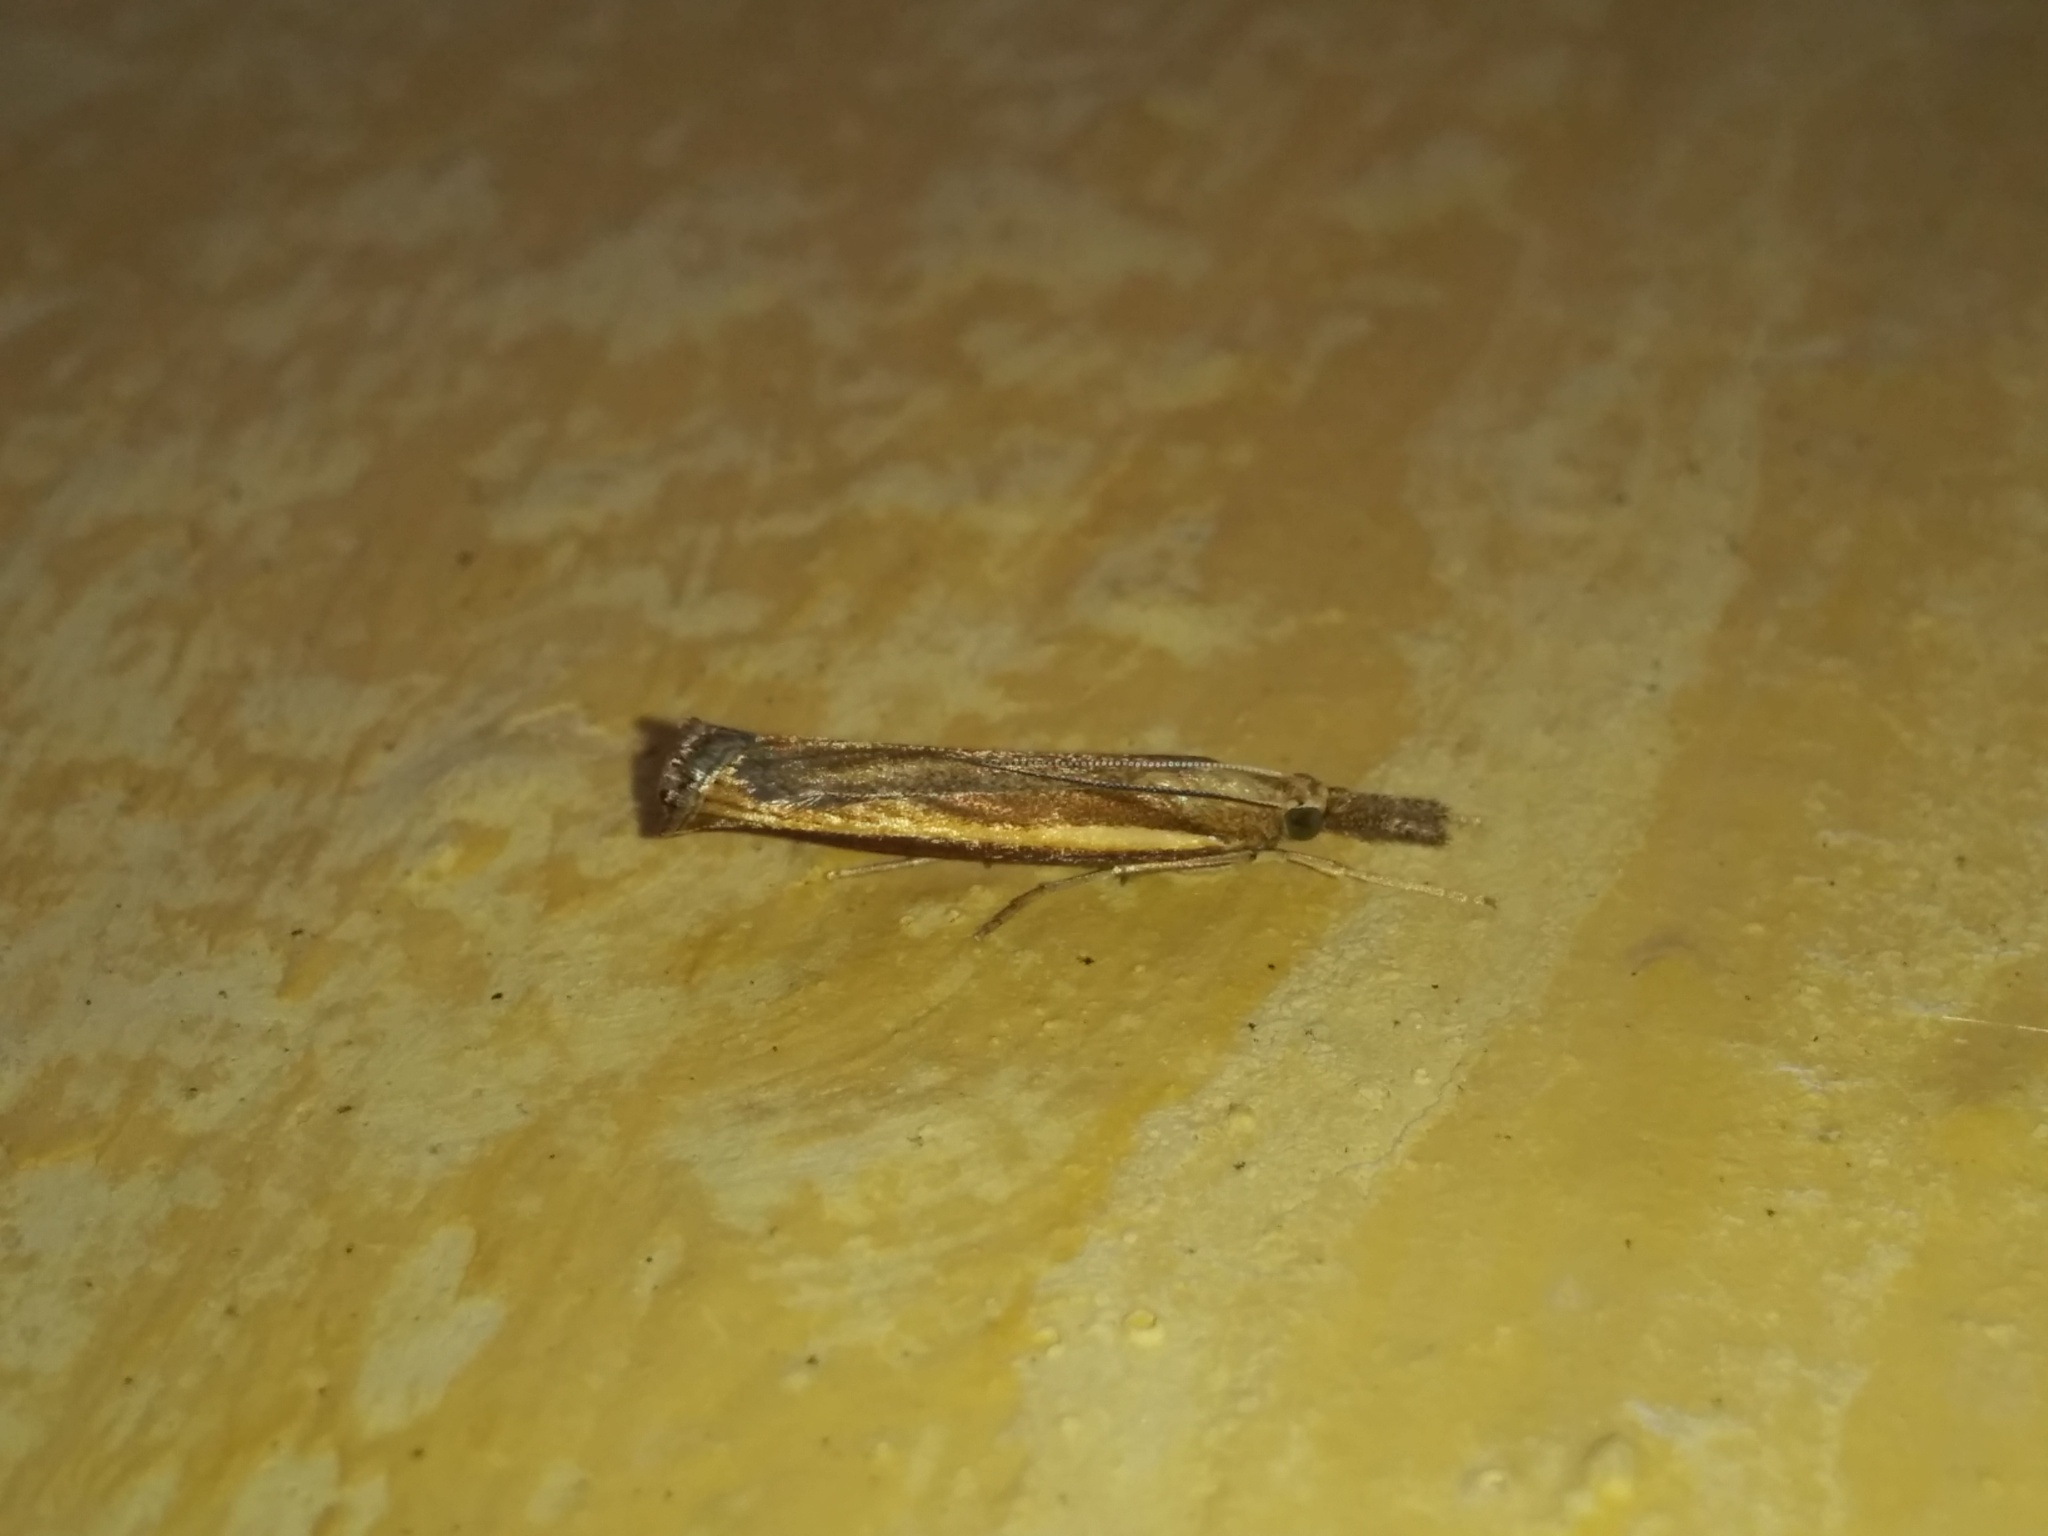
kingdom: Animalia
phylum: Arthropoda
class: Insecta
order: Lepidoptera
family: Crambidae
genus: Agriphila
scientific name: Agriphila tristellus
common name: Common grass-veneer
